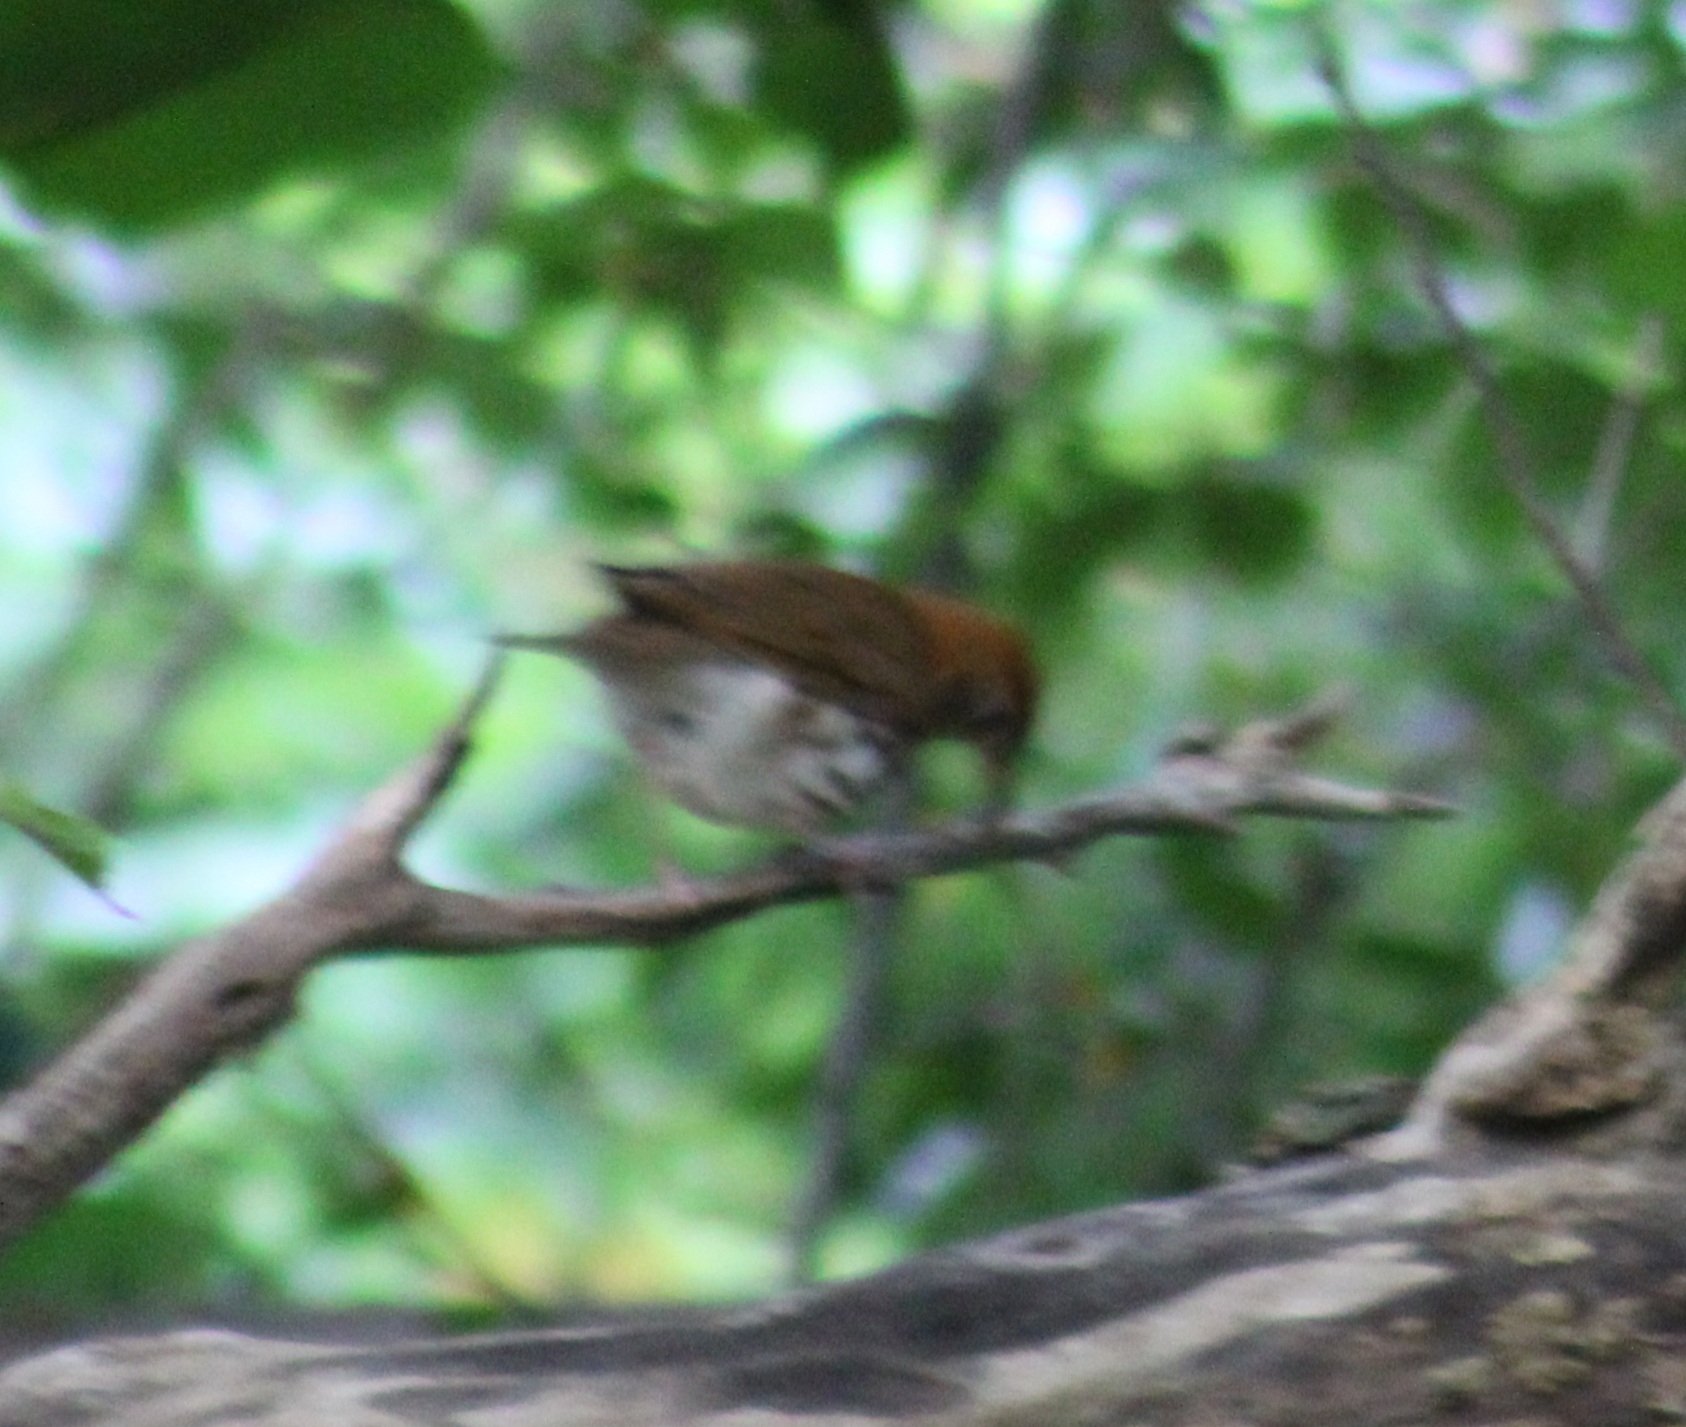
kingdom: Animalia
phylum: Chordata
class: Aves
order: Passeriformes
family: Turdidae
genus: Hylocichla
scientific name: Hylocichla mustelina
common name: Wood thrush
